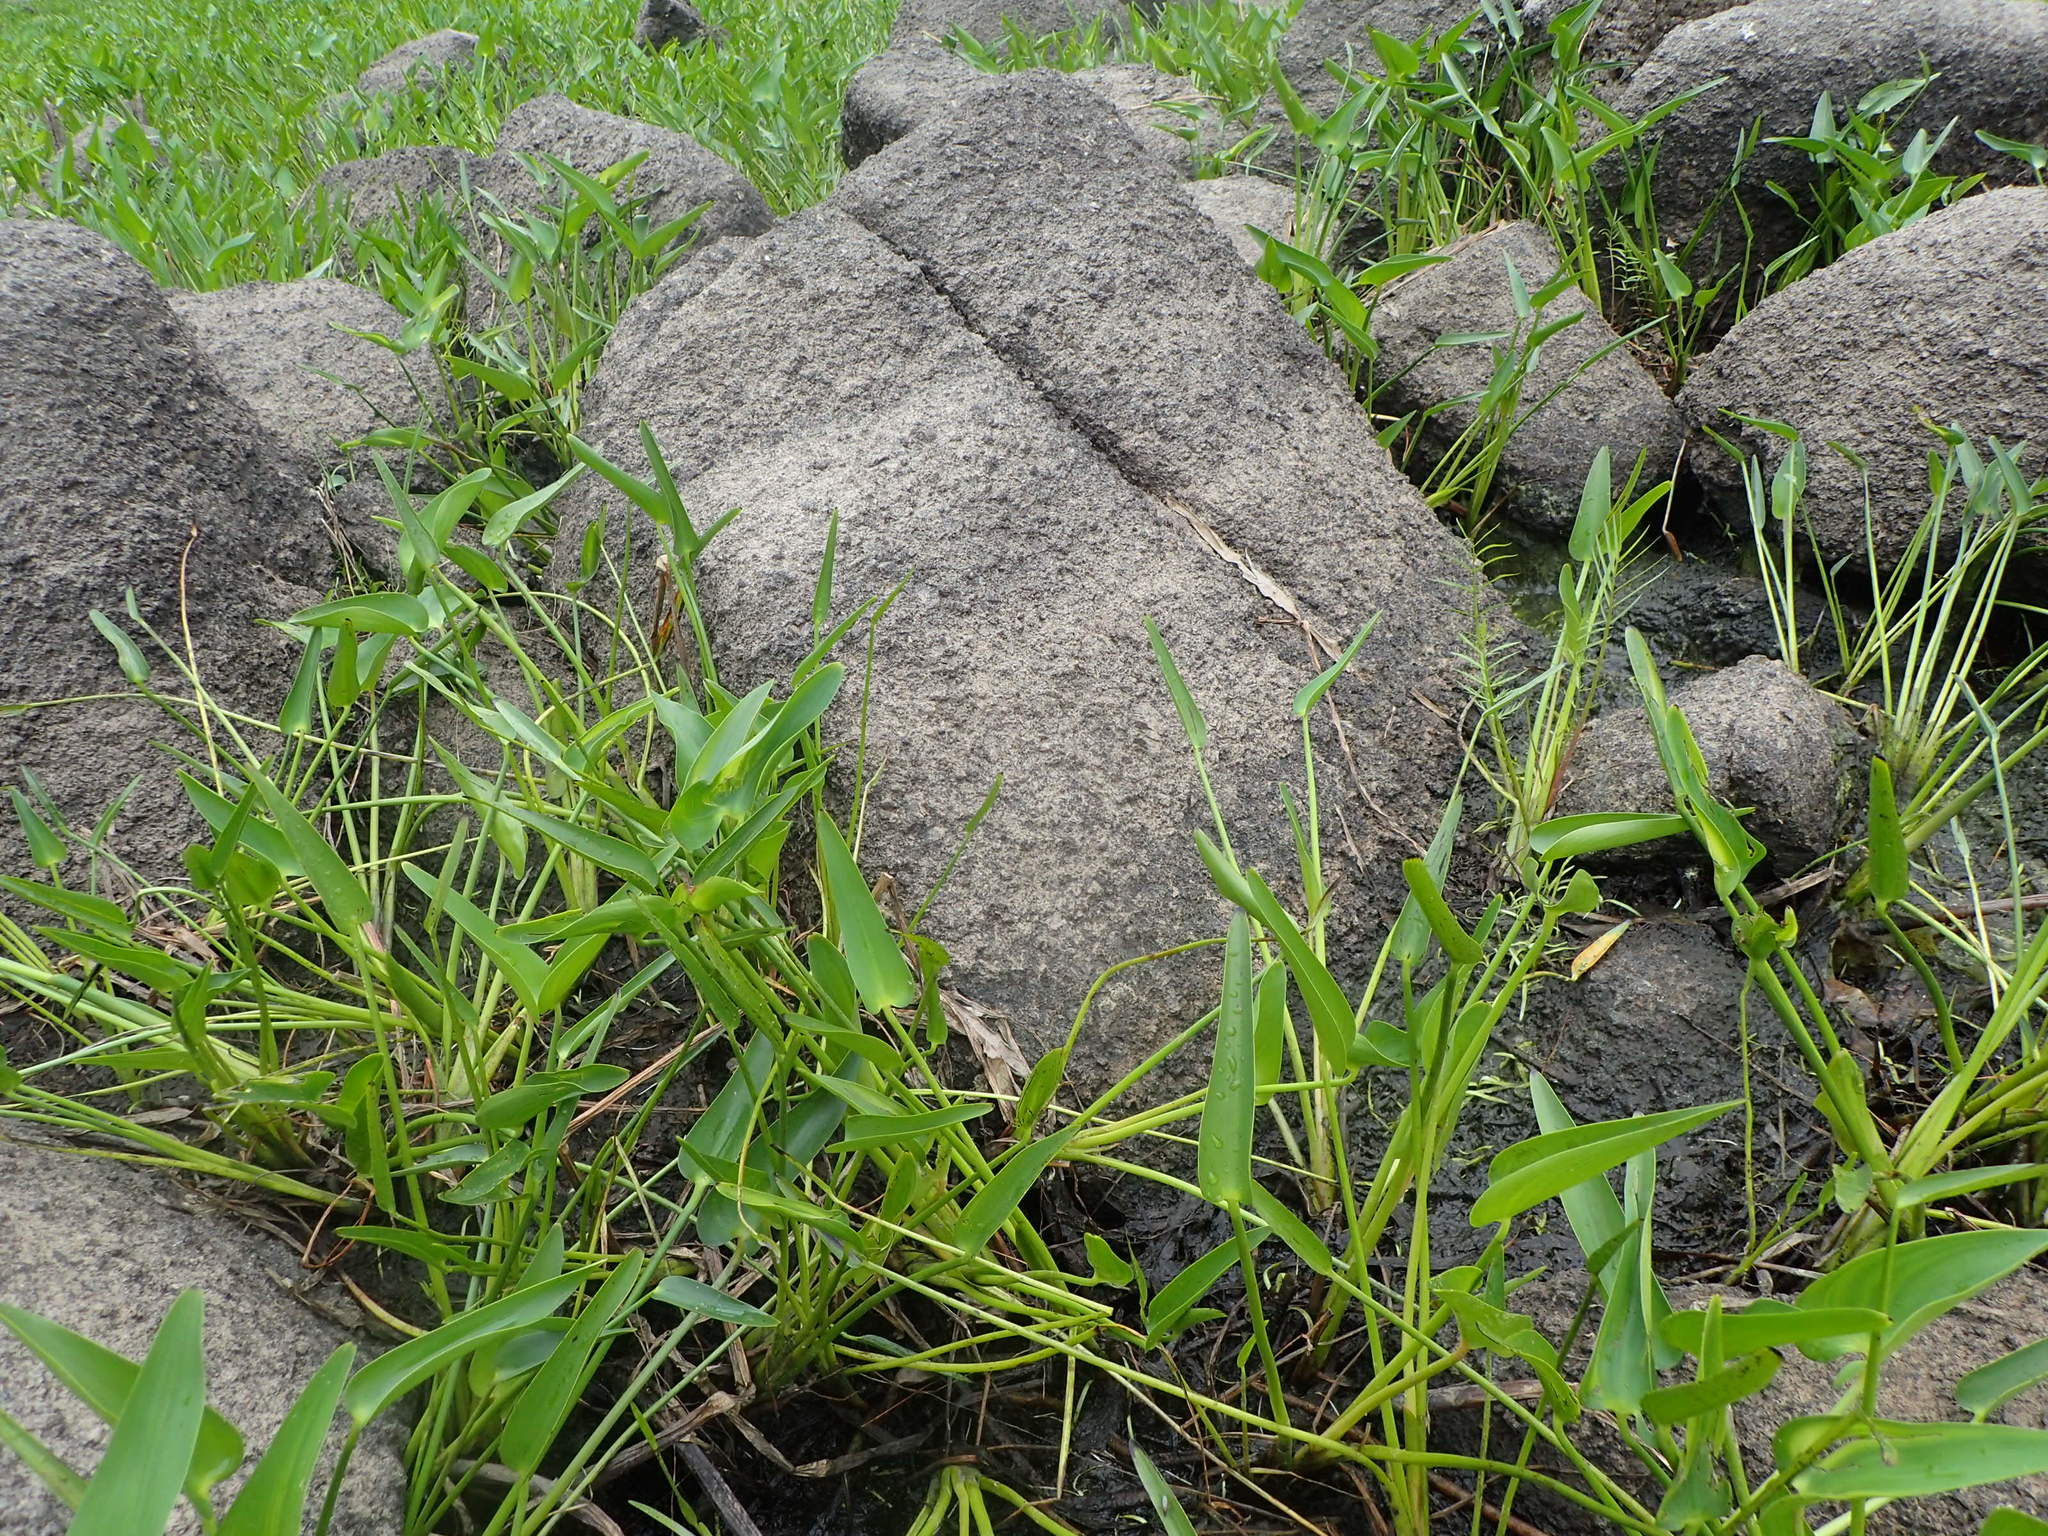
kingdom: Plantae
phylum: Tracheophyta
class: Liliopsida
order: Commelinales
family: Pontederiaceae
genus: Pontederia
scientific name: Pontederia cordata
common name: Pickerelweed
